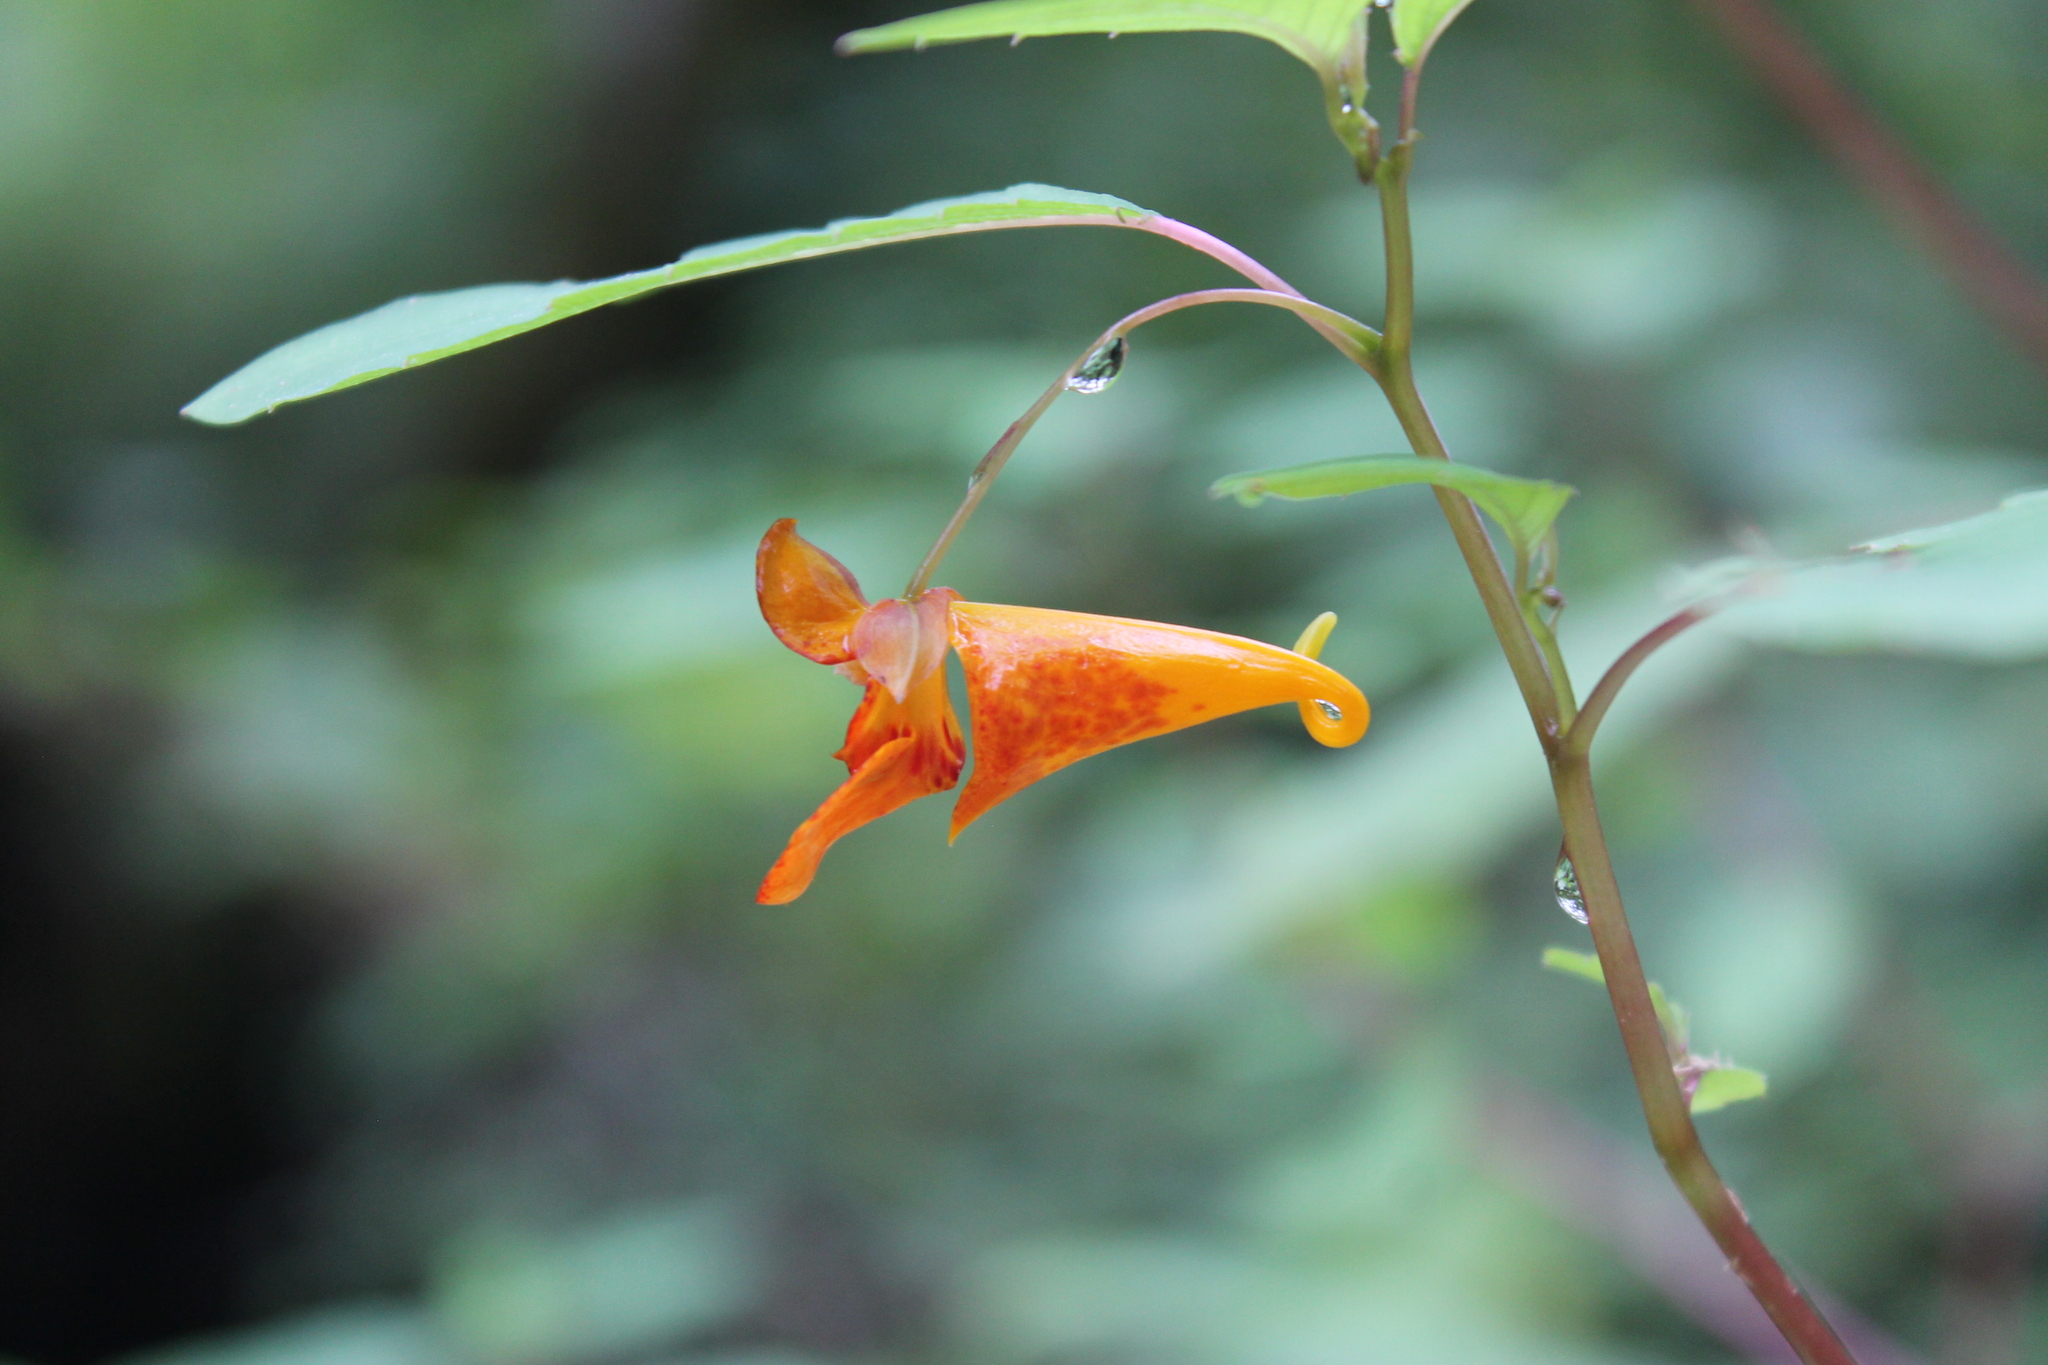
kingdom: Plantae
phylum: Tracheophyta
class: Magnoliopsida
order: Ericales
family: Balsaminaceae
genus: Impatiens
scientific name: Impatiens capensis
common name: Orange balsam
